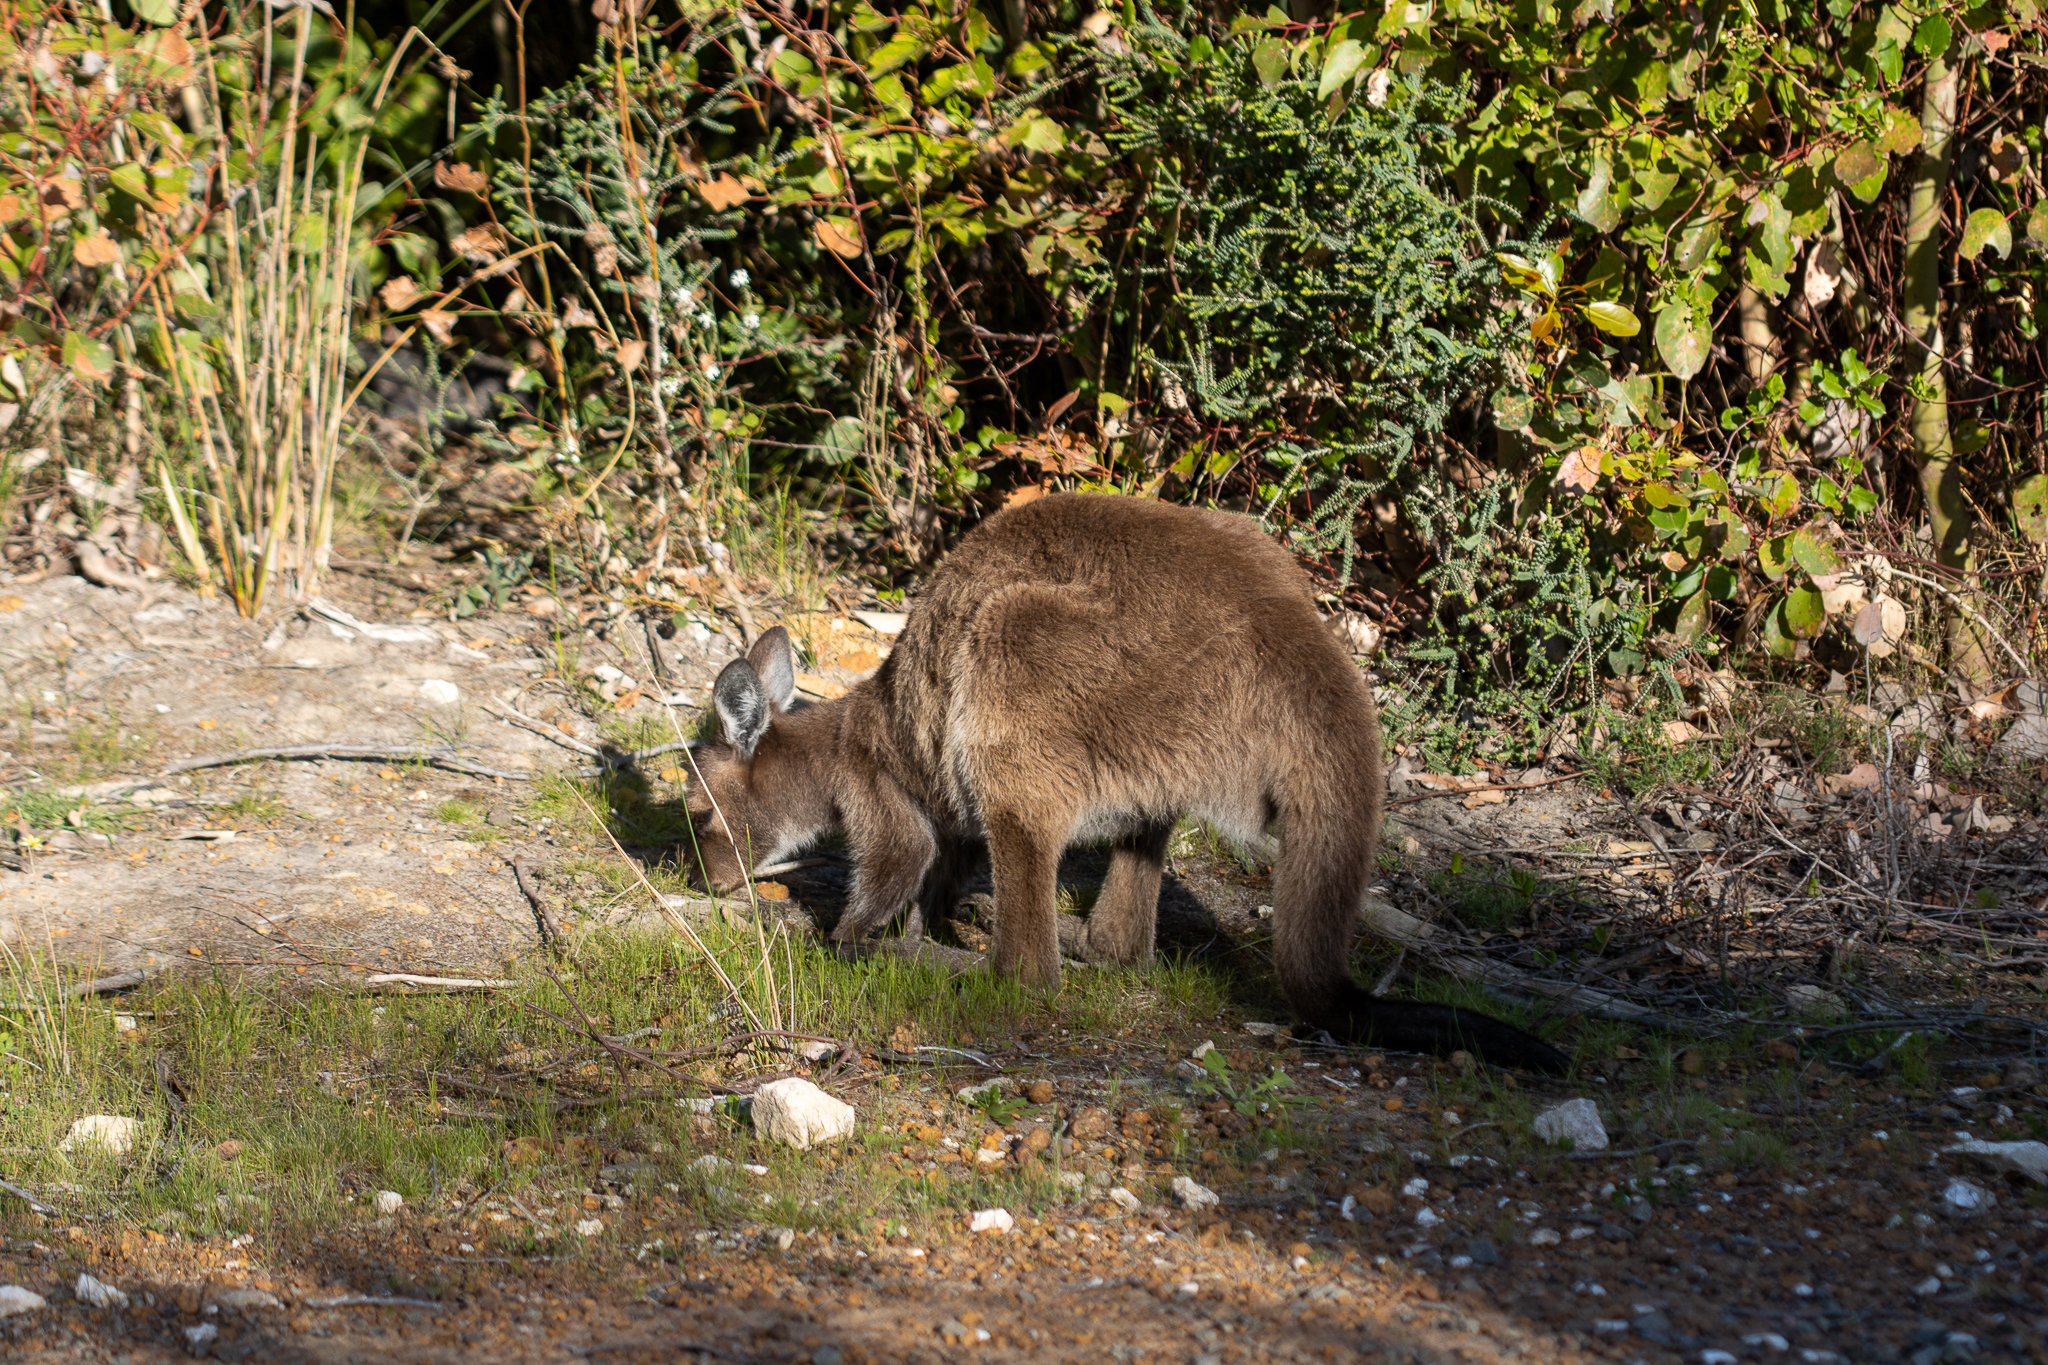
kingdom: Animalia
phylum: Chordata
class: Mammalia
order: Diprotodontia
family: Macropodidae
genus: Macropus
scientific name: Macropus fuliginosus
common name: Western grey kangaroo
